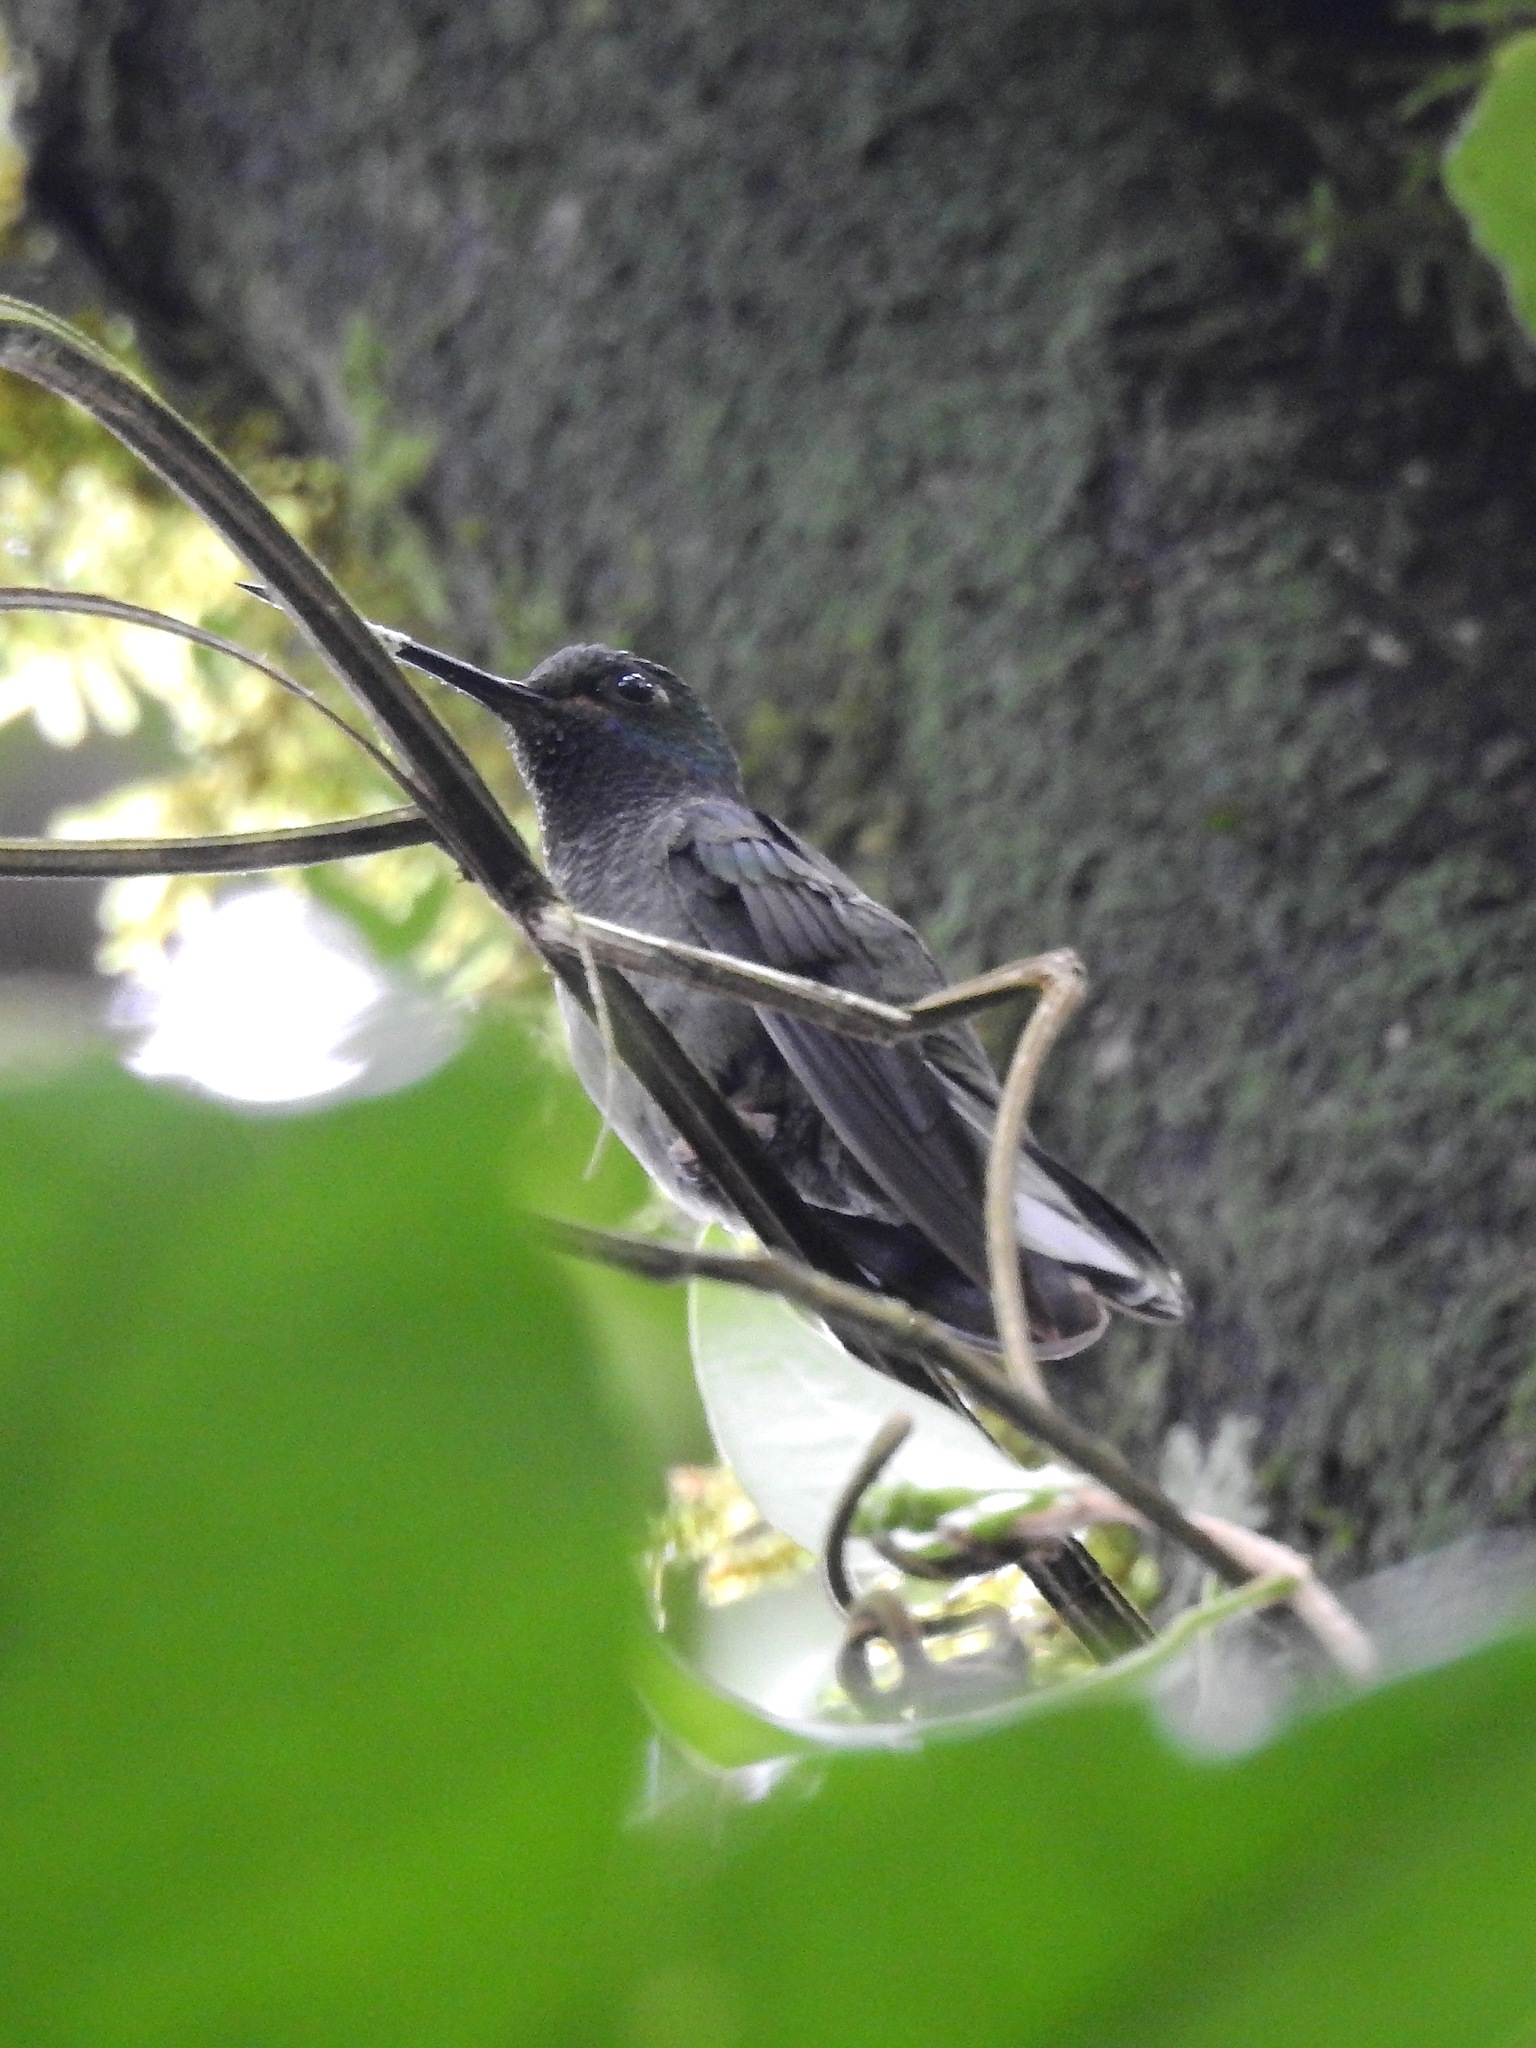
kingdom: Animalia
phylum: Chordata
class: Aves
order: Apodiformes
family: Trochilidae
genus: Urochroa
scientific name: Urochroa leucura
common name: Green-backed hillstar
